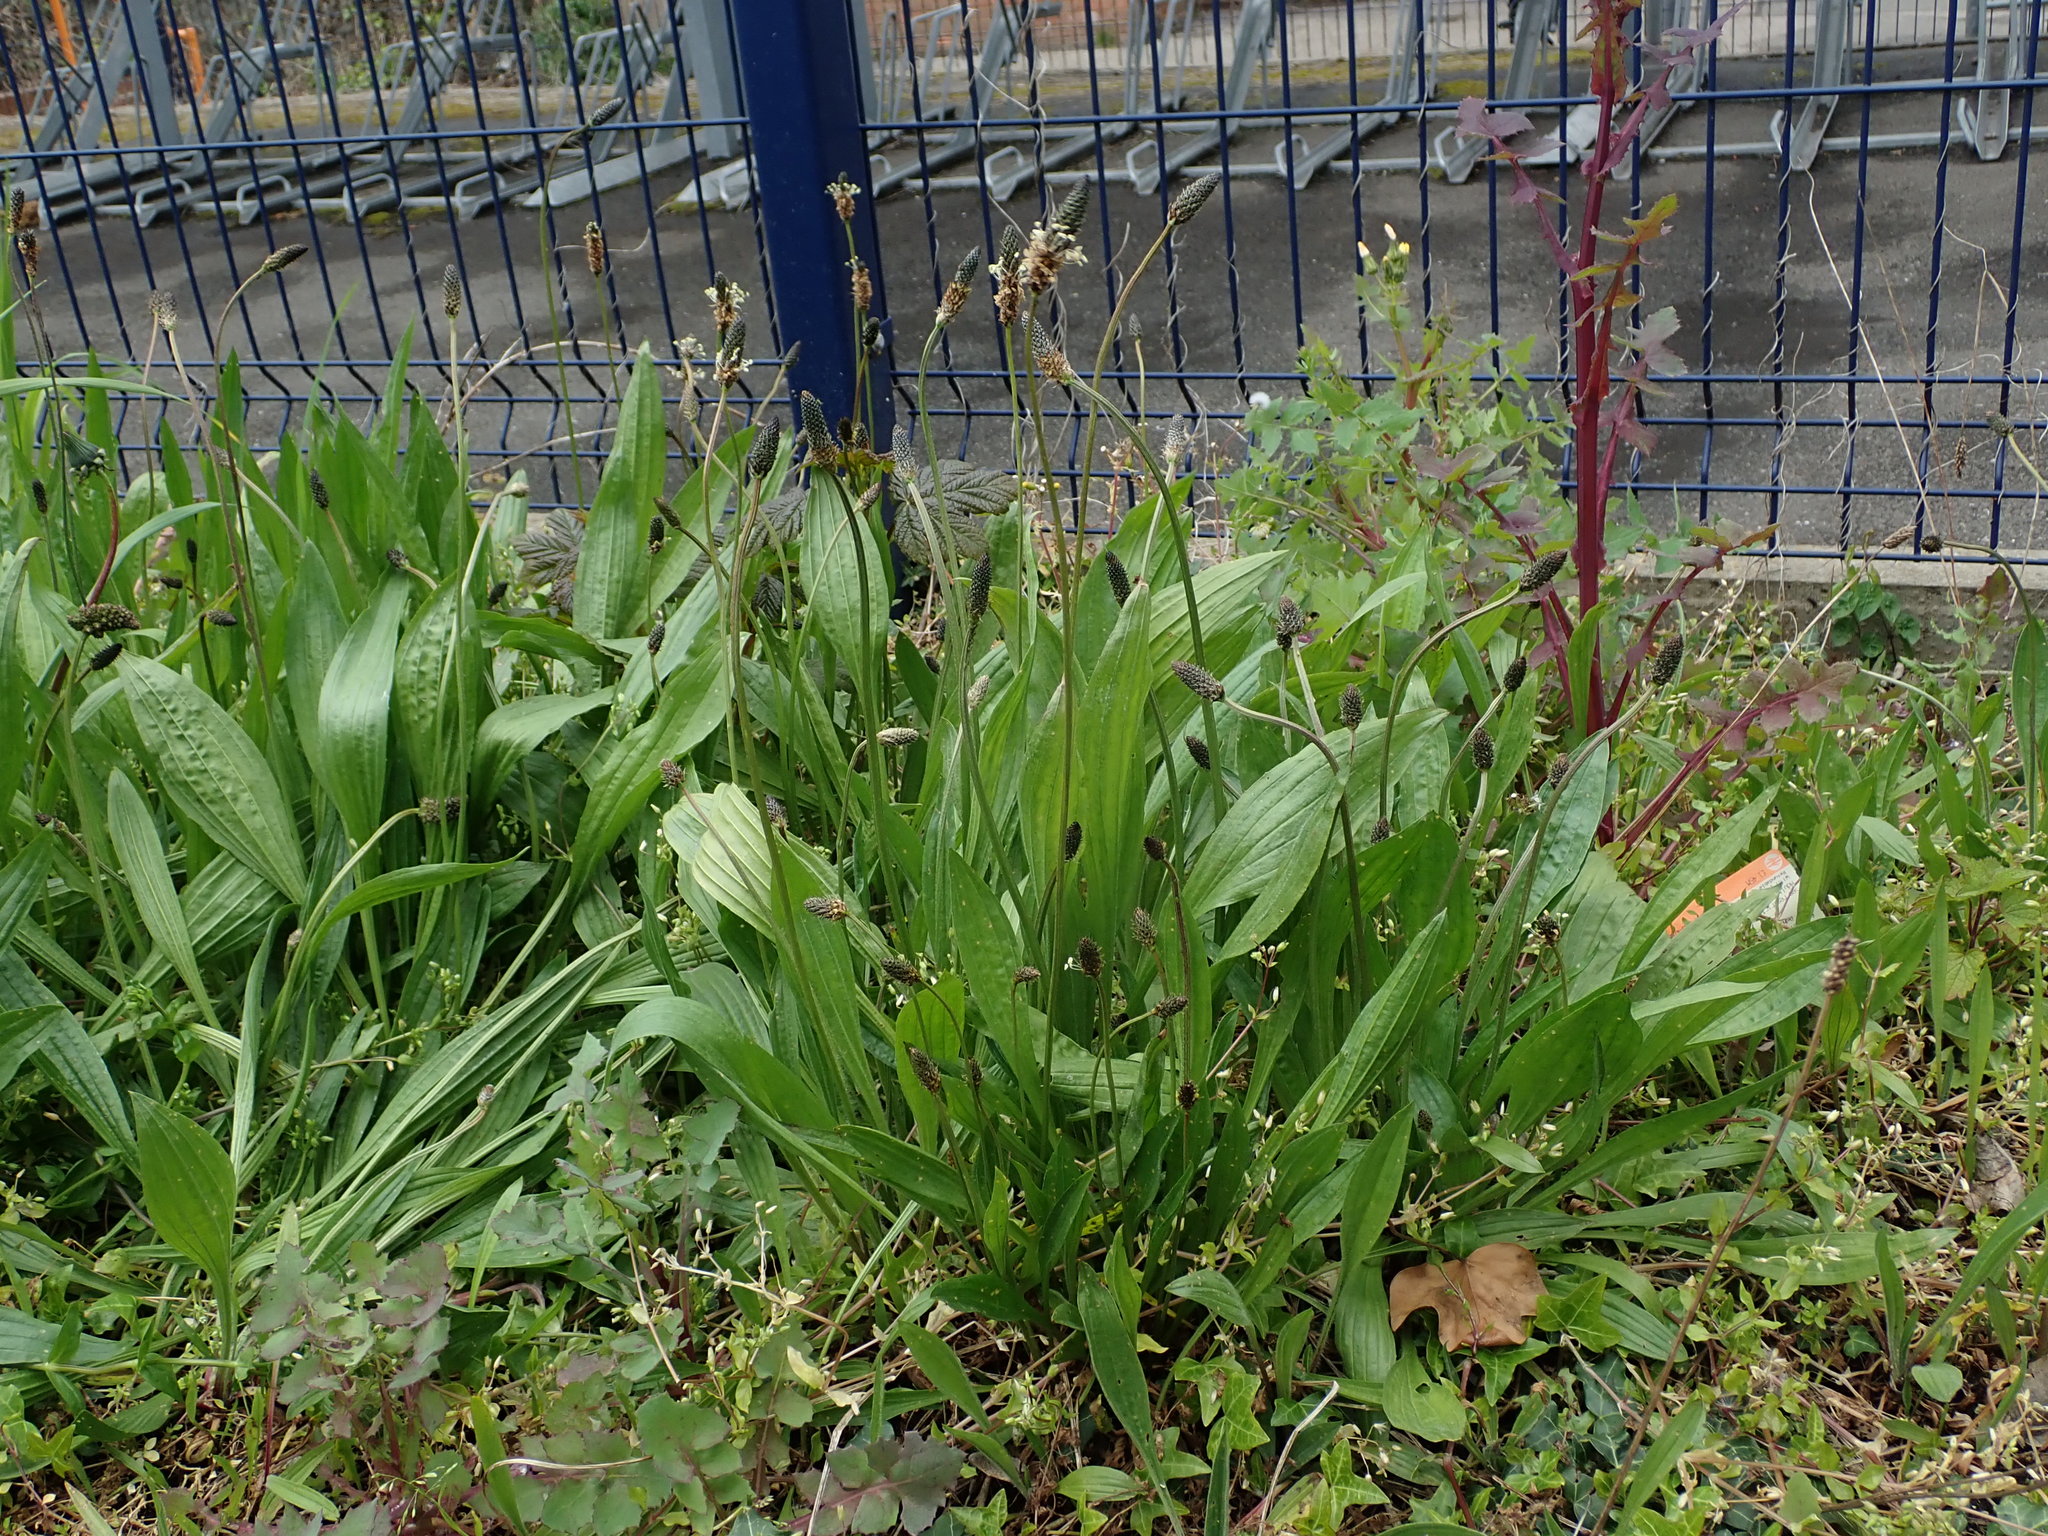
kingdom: Plantae
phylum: Tracheophyta
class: Magnoliopsida
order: Lamiales
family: Plantaginaceae
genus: Plantago
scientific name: Plantago lanceolata
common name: Ribwort plantain
